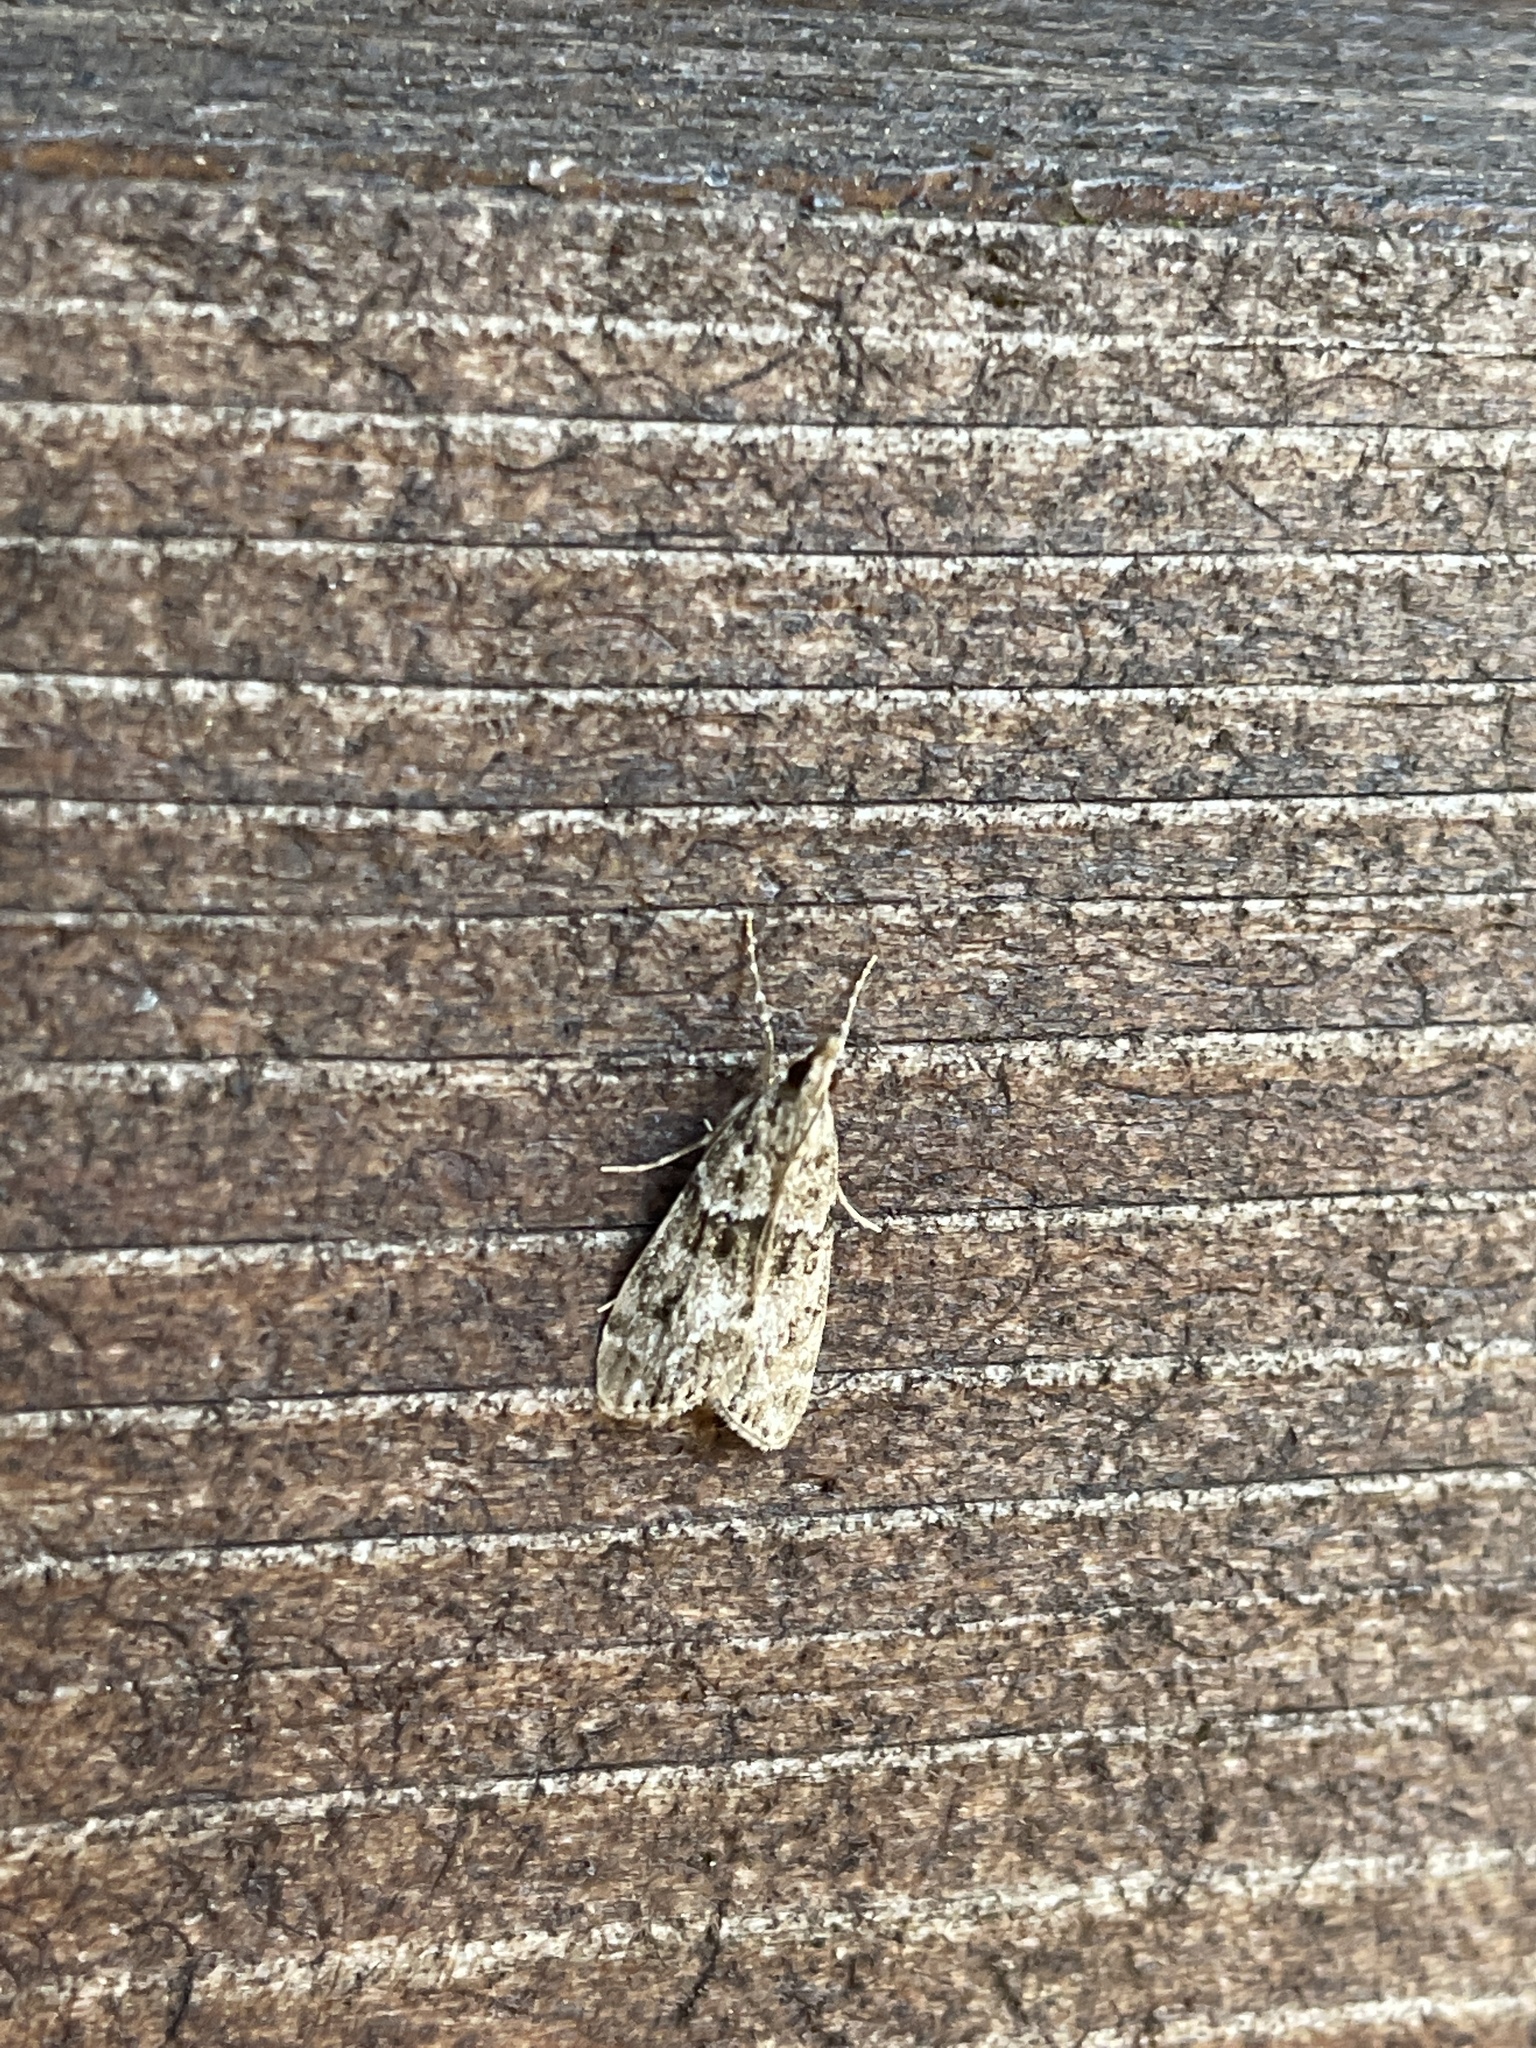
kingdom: Animalia
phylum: Arthropoda
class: Insecta
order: Lepidoptera
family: Crambidae
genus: Eudonia
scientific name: Eudonia lacustrata
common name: Little grey
